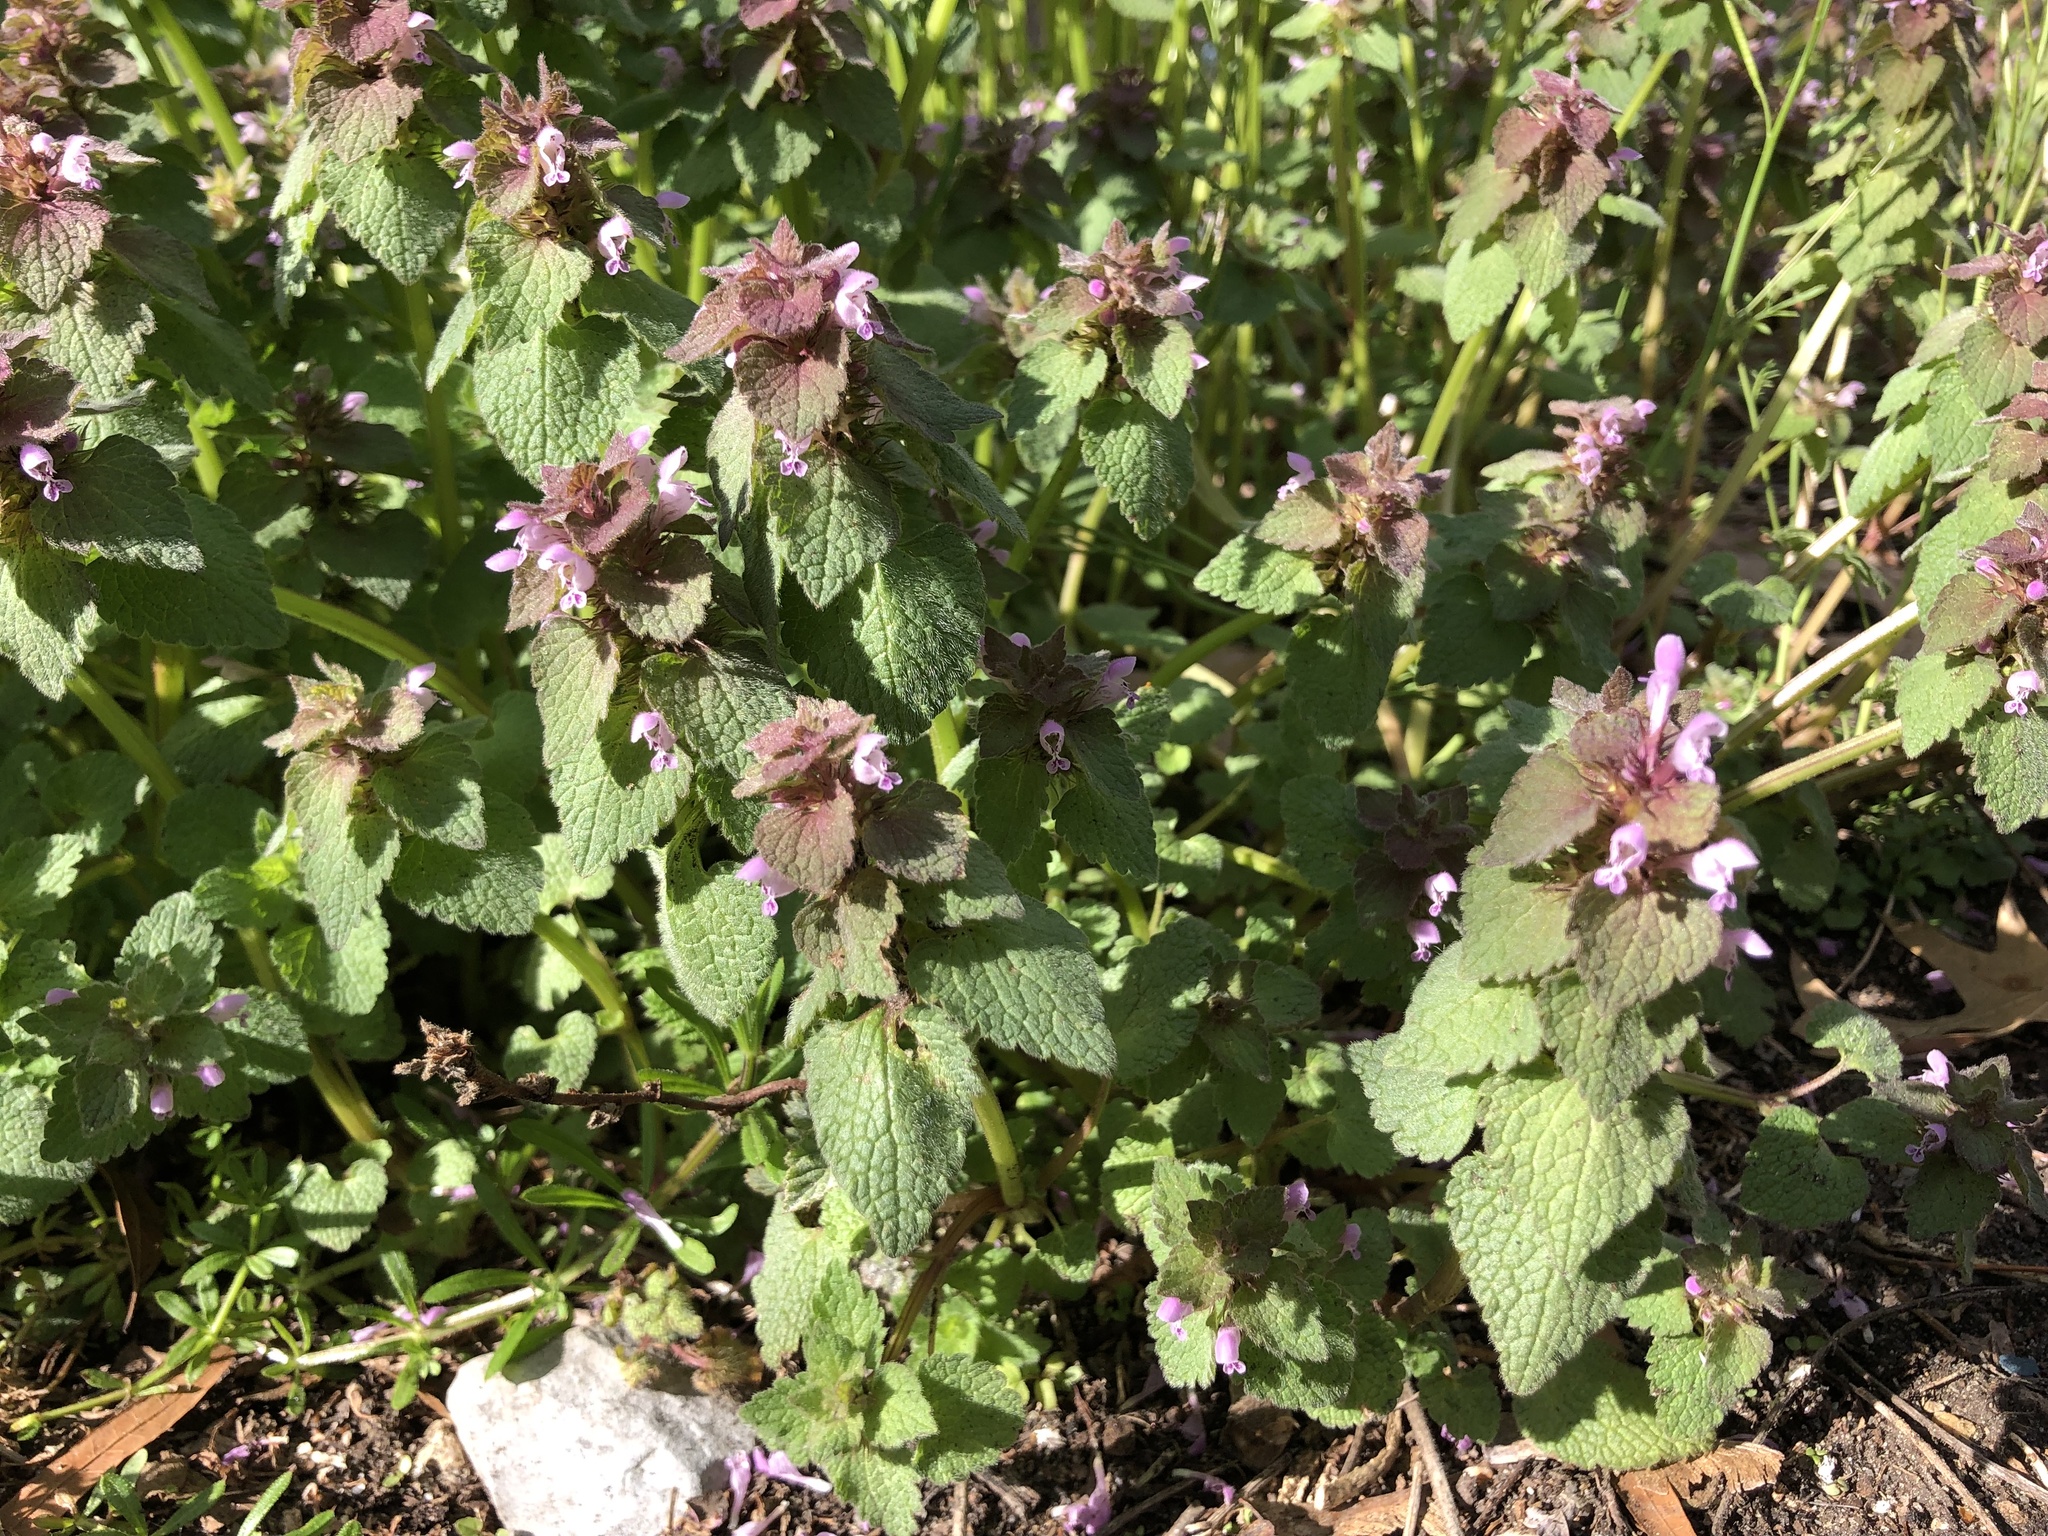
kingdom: Plantae
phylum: Tracheophyta
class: Magnoliopsida
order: Lamiales
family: Lamiaceae
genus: Lamium
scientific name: Lamium purpureum
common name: Red dead-nettle
